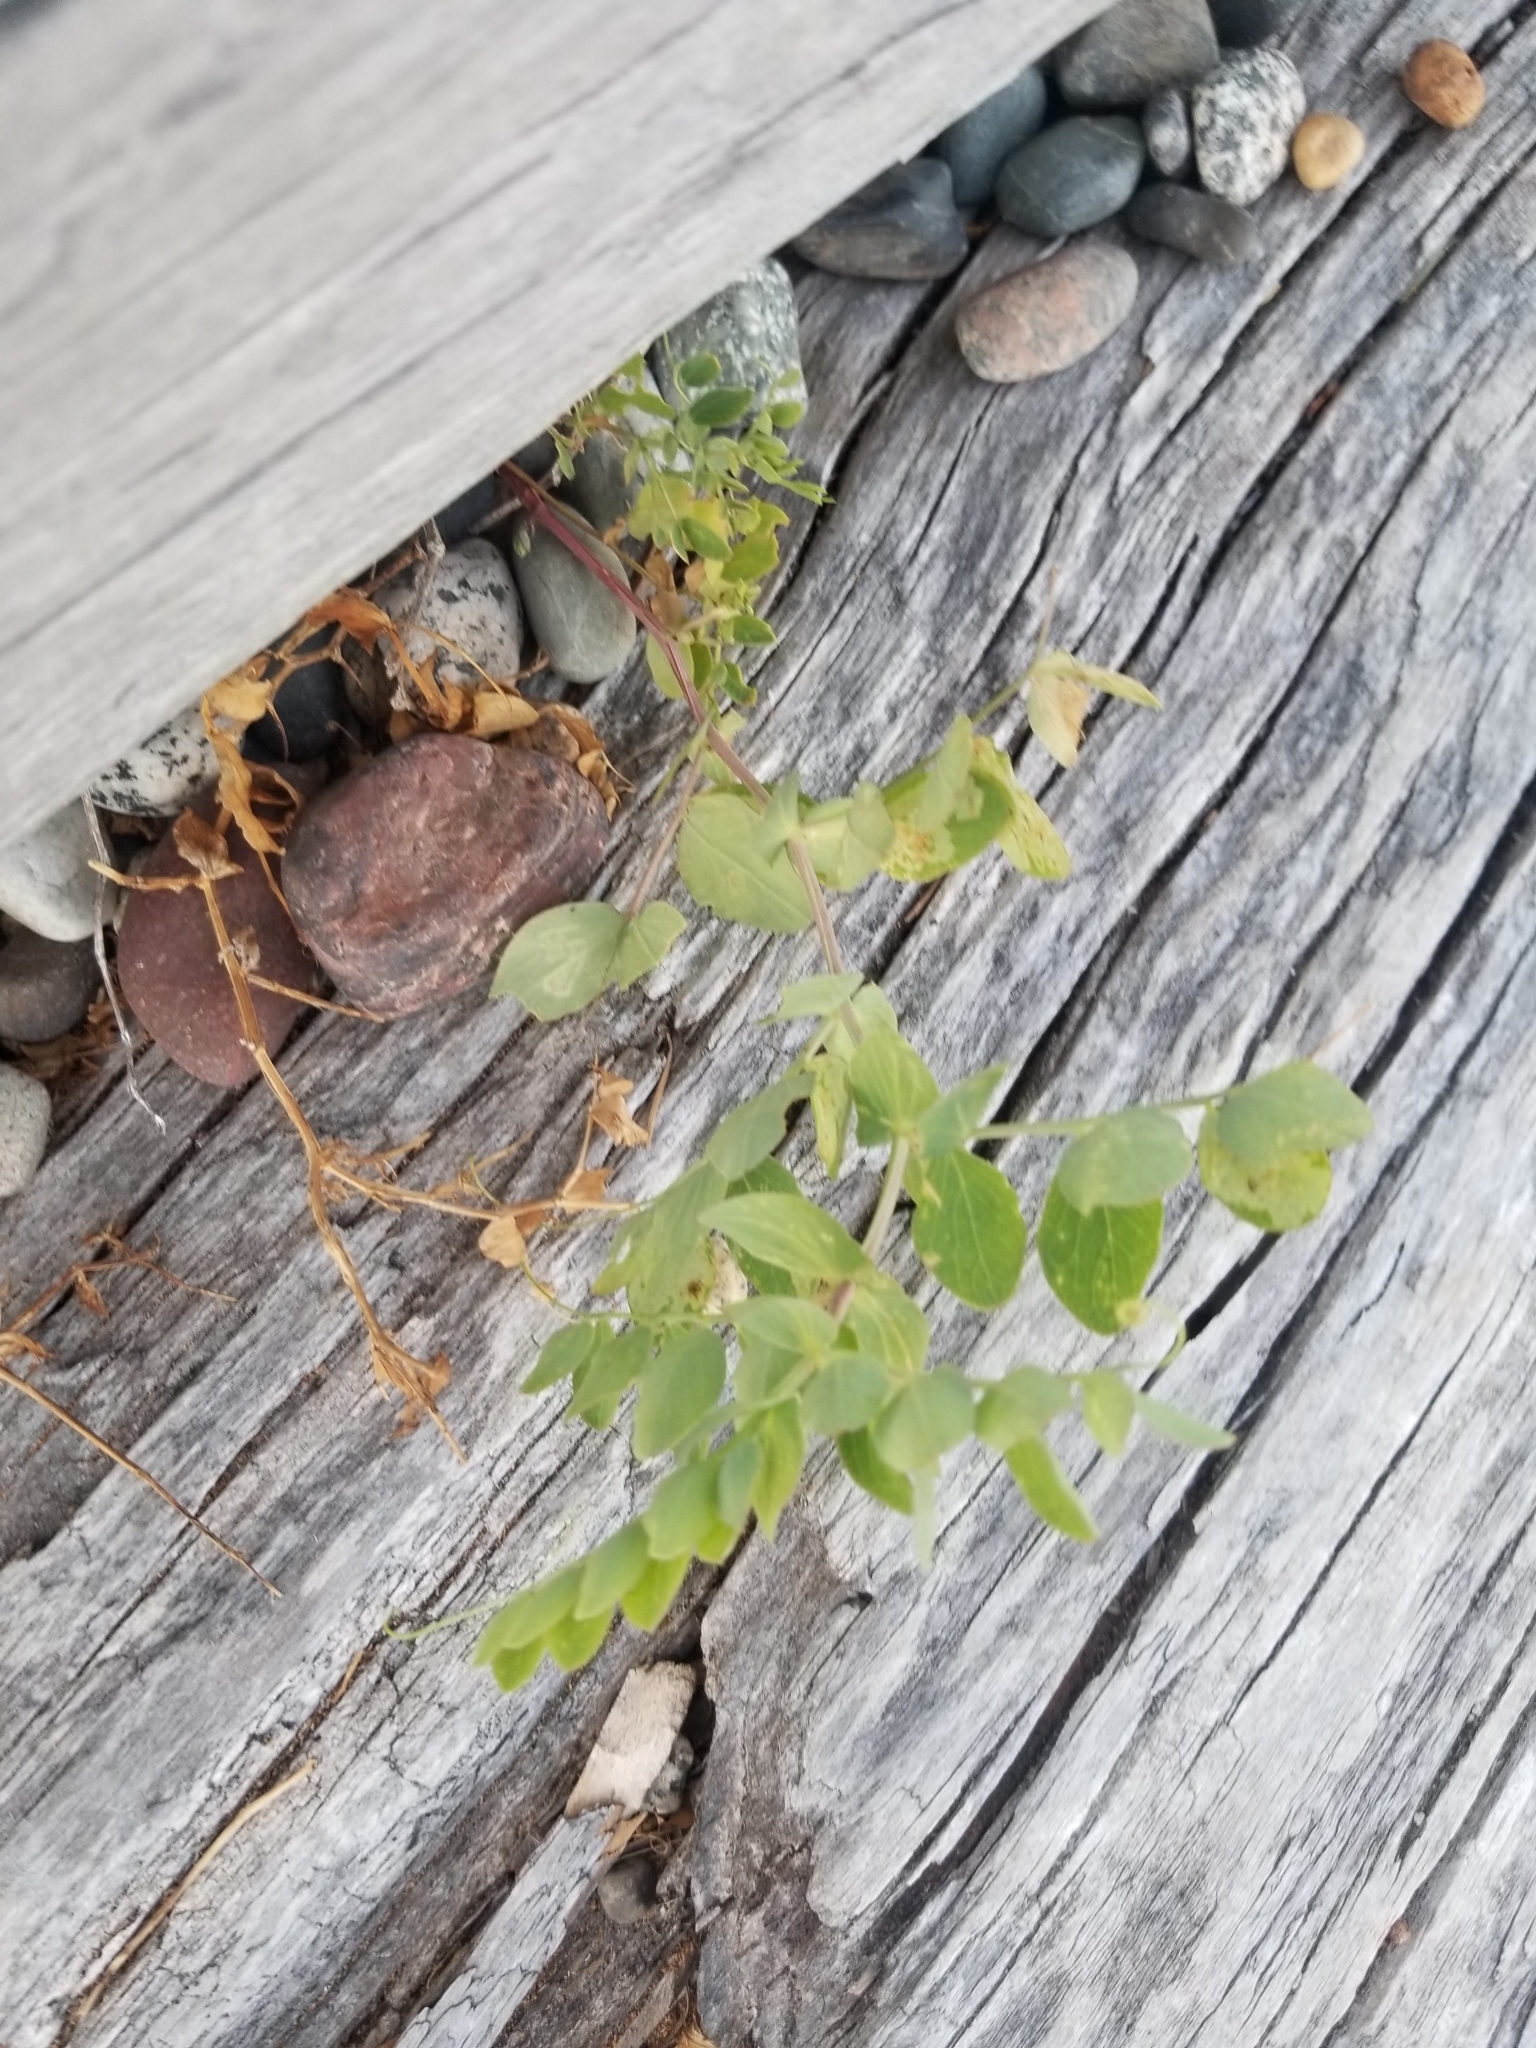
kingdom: Plantae
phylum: Tracheophyta
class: Magnoliopsida
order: Fabales
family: Fabaceae
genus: Lathyrus
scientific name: Lathyrus japonicus
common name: Sea pea
